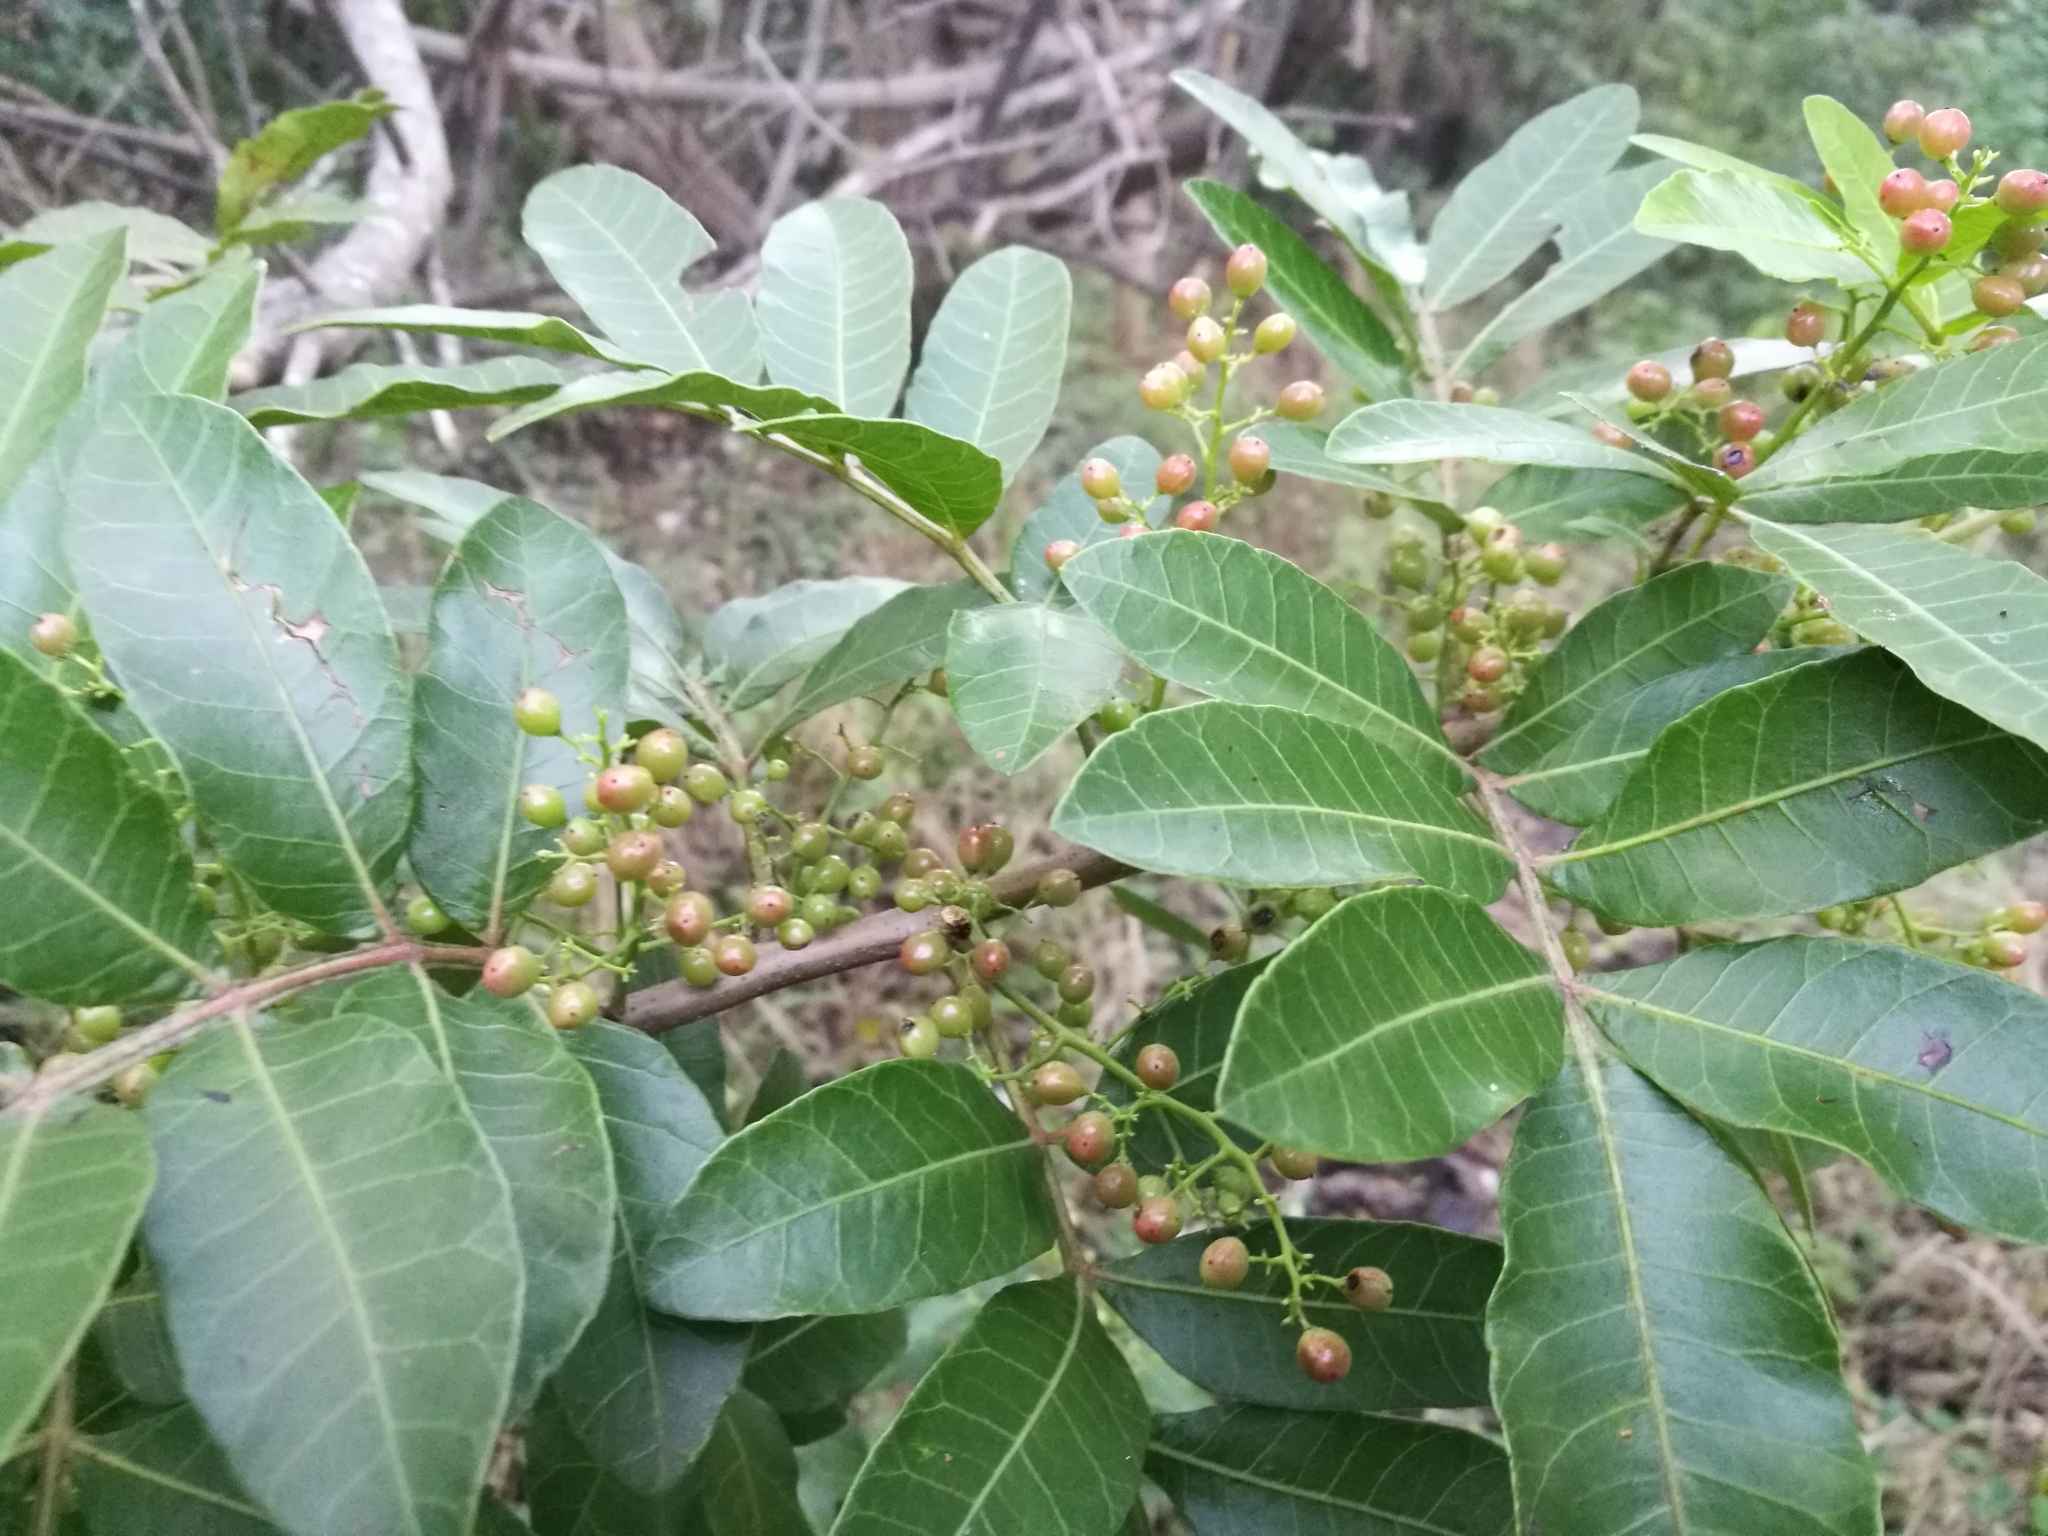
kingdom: Plantae
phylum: Tracheophyta
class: Magnoliopsida
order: Sapindales
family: Anacardiaceae
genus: Schinus
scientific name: Schinus terebinthifolia
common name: Brazilian peppertree
